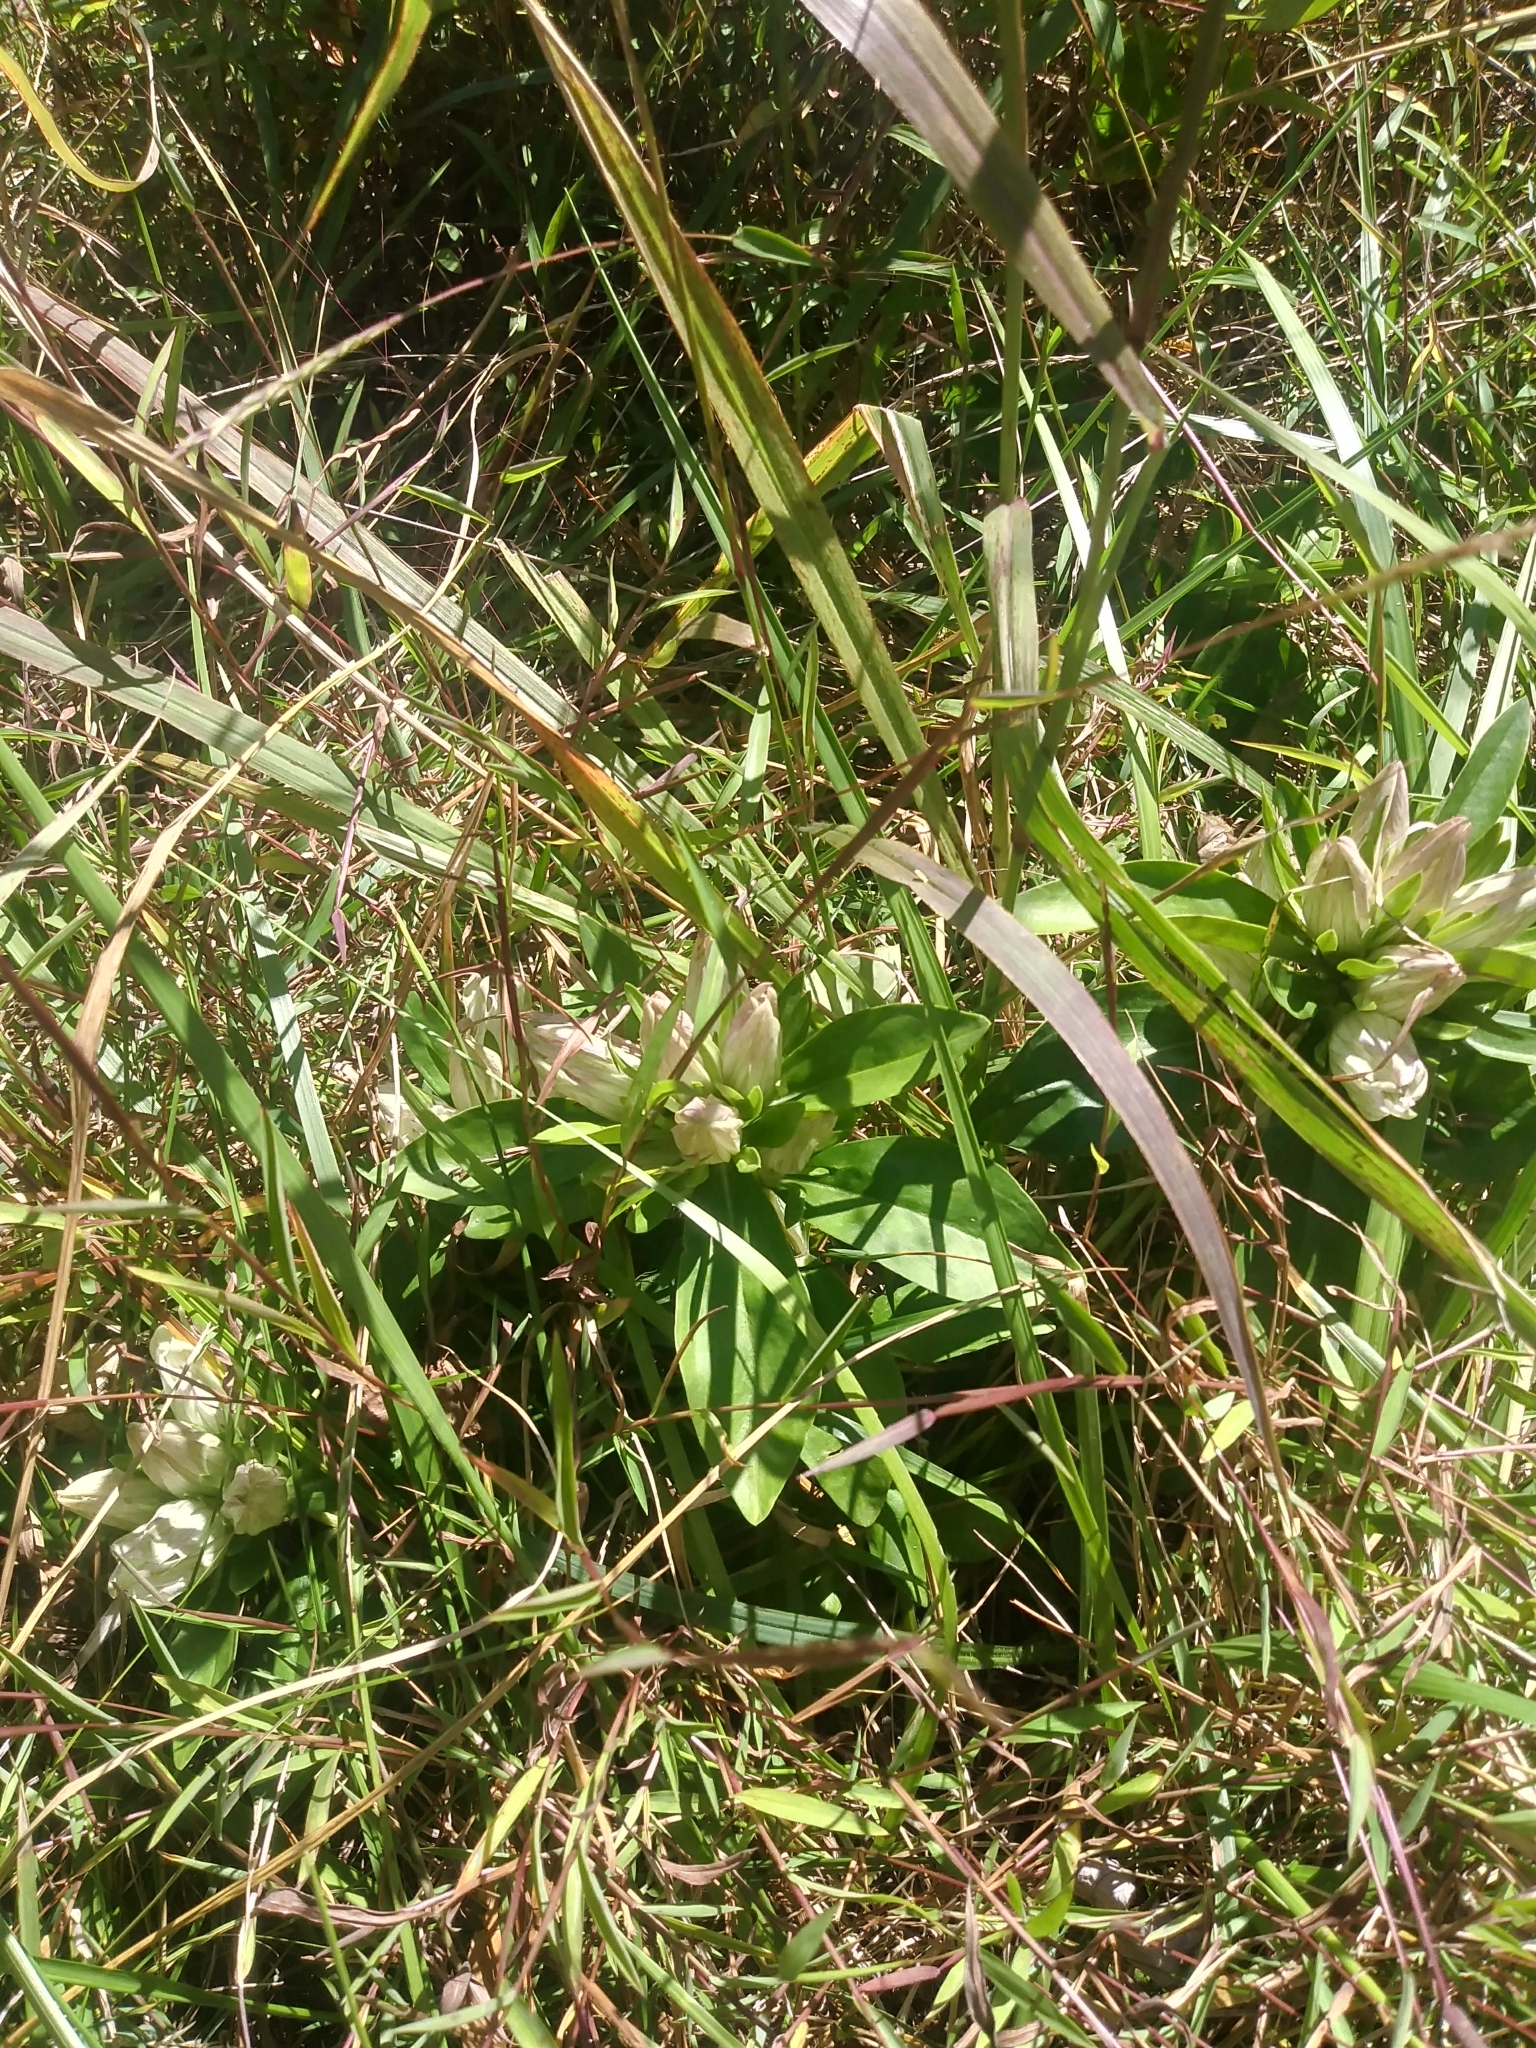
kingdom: Plantae
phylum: Tracheophyta
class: Magnoliopsida
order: Gentianales
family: Gentianaceae
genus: Gentiana
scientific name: Gentiana villosa
